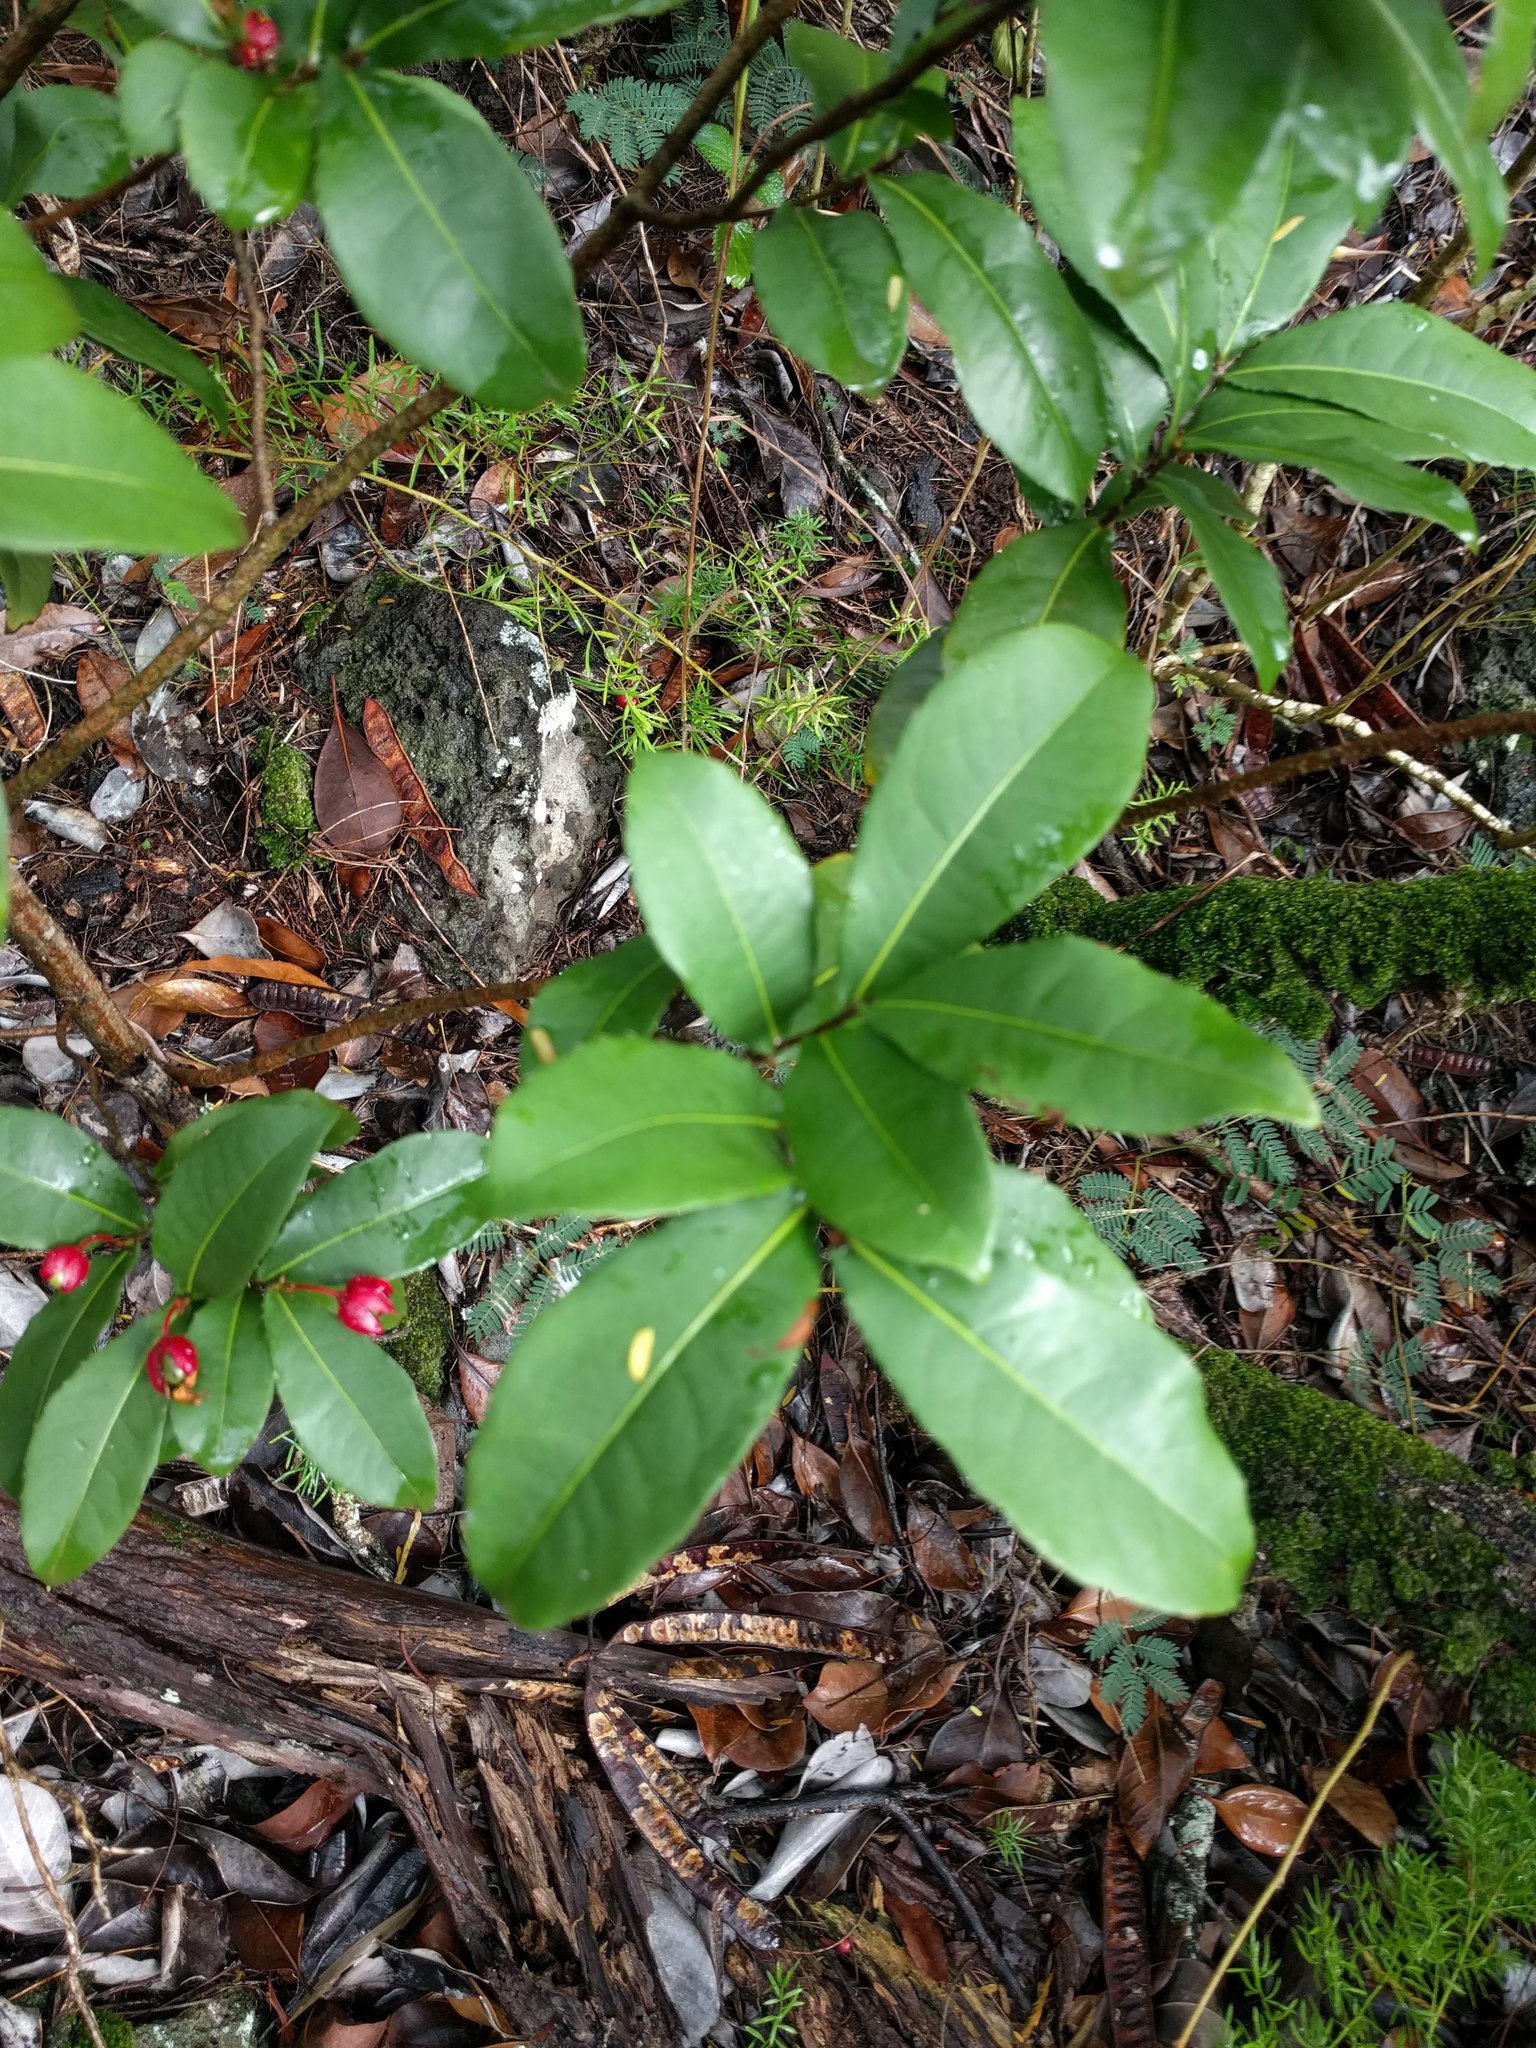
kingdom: Plantae
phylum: Tracheophyta
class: Magnoliopsida
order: Malpighiales
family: Ochnaceae
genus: Ochna
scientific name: Ochna thomasiana
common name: Thomas' bird's-eye bush
